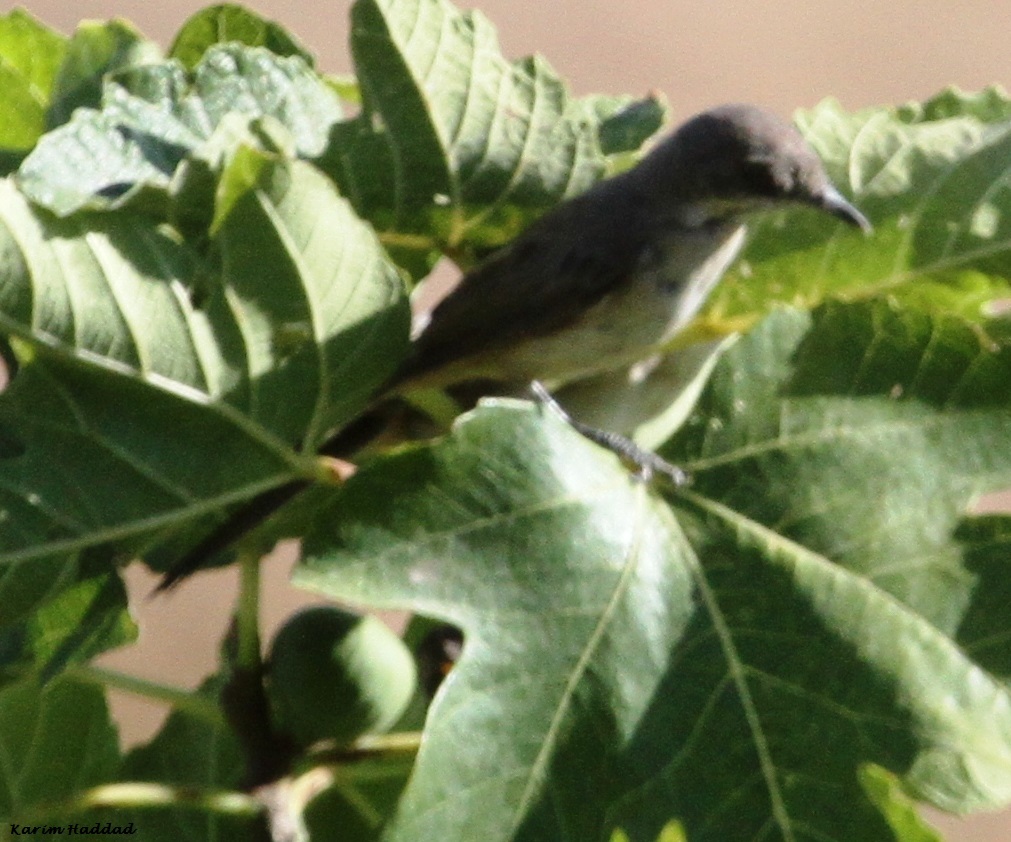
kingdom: Animalia
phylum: Chordata
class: Aves
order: Passeriformes
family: Sylviidae
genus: Sylvia
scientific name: Sylvia hortensis
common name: Orphean warbler
